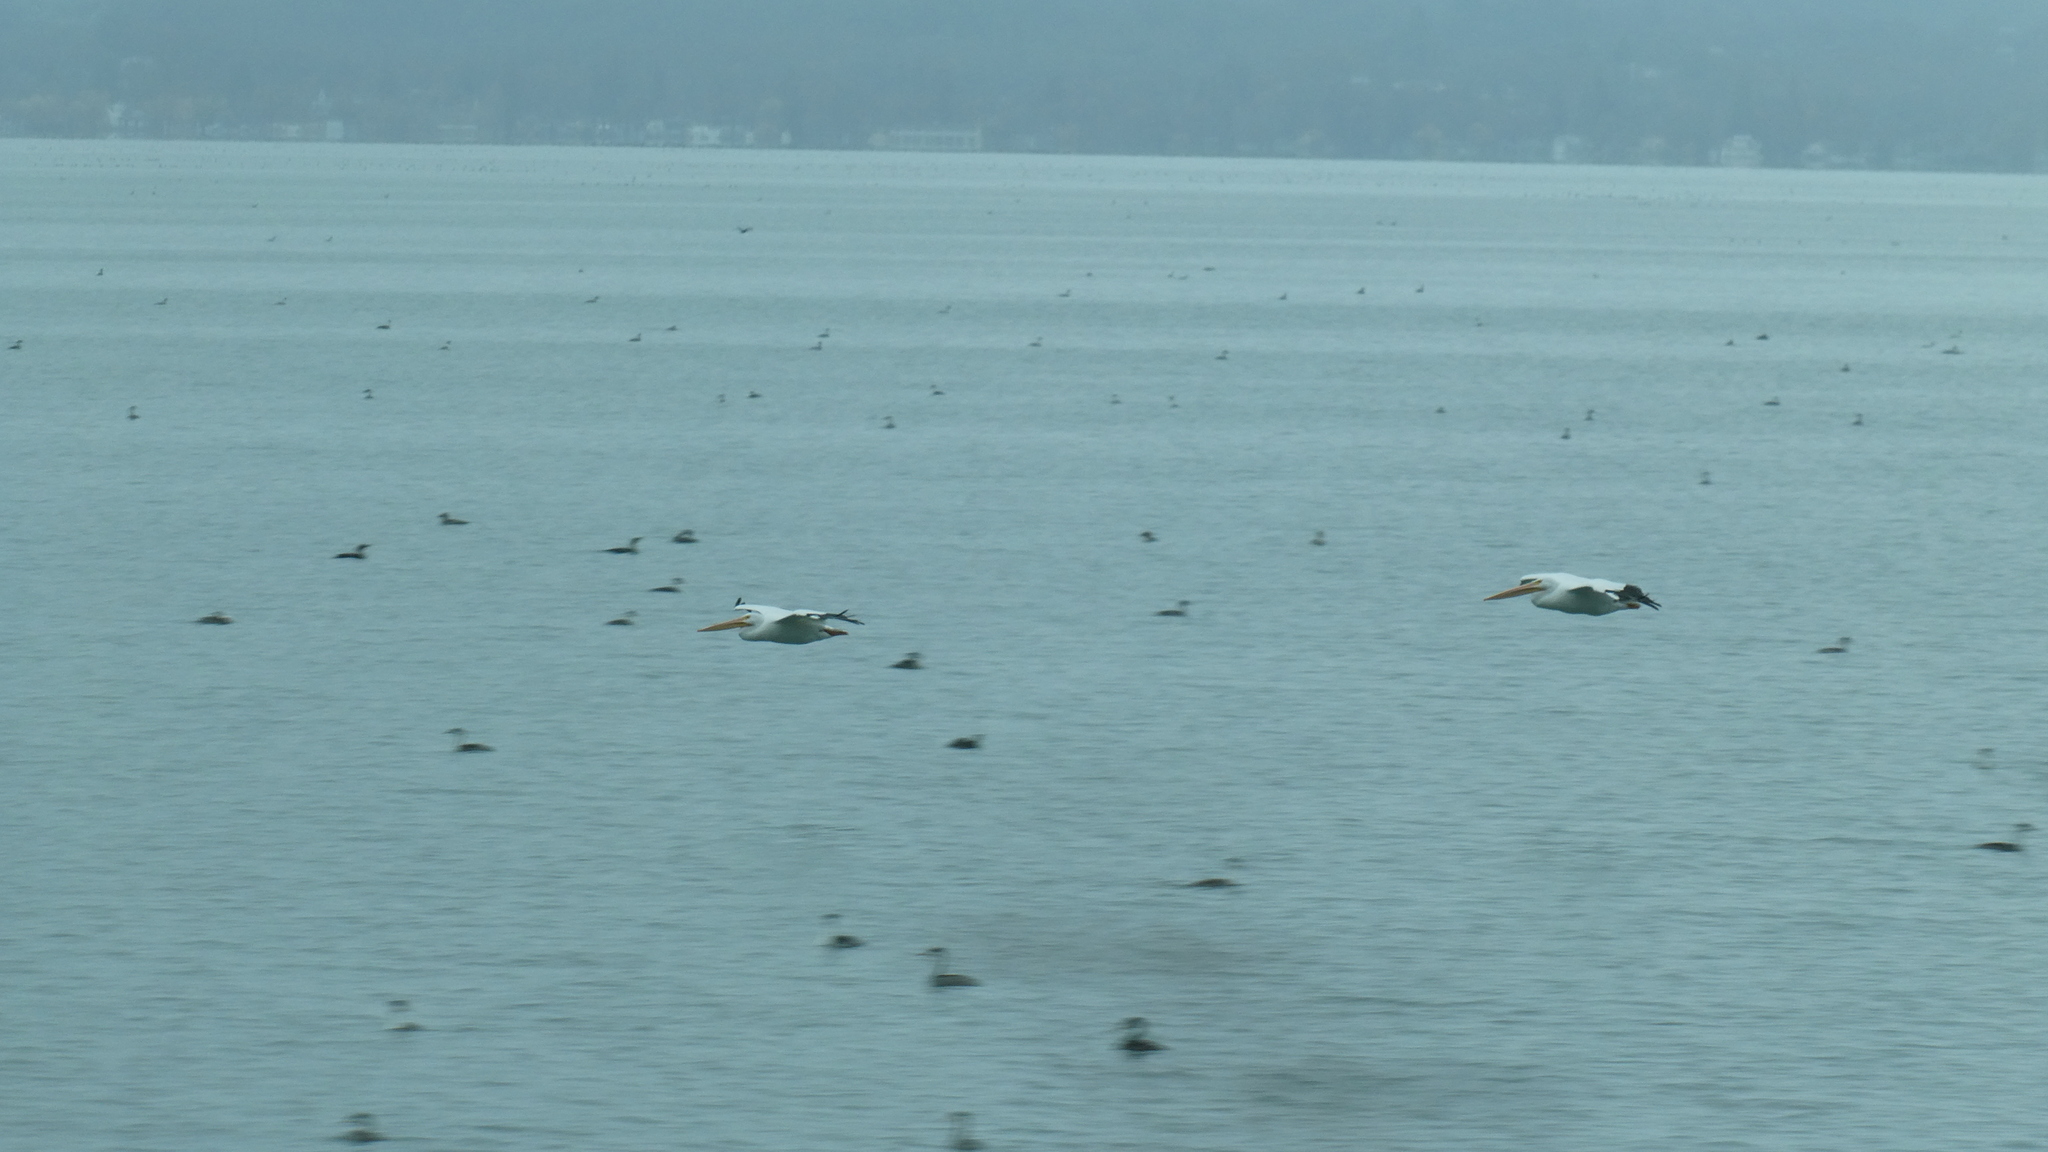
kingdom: Animalia
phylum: Chordata
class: Aves
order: Pelecaniformes
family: Pelecanidae
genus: Pelecanus
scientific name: Pelecanus erythrorhynchos
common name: American white pelican
